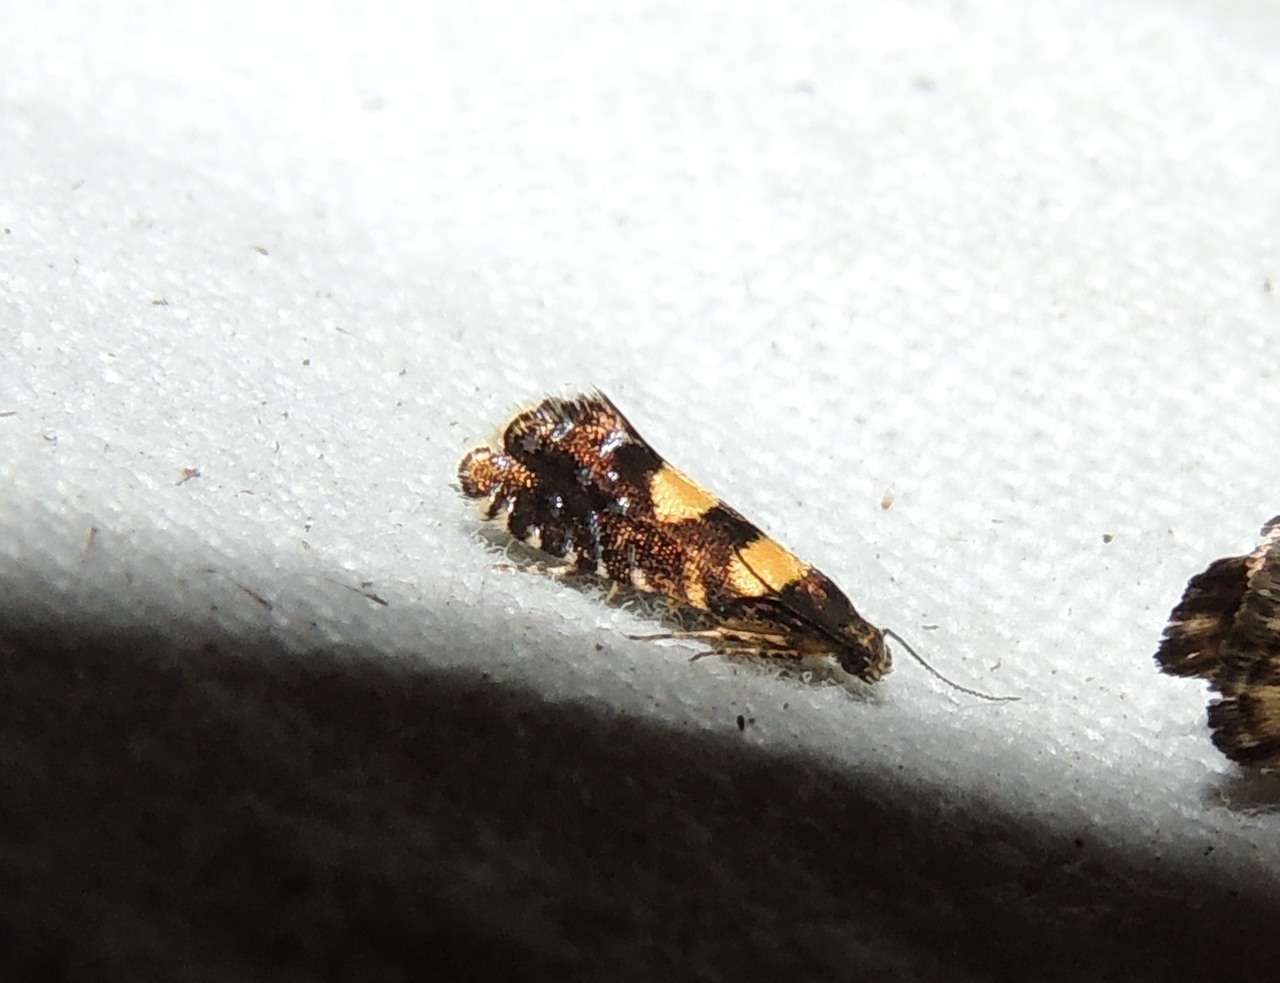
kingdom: Animalia
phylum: Arthropoda
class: Insecta
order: Lepidoptera
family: Glyphipterigidae
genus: Glyphipterix
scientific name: Glyphipterix chrysoplanetis
